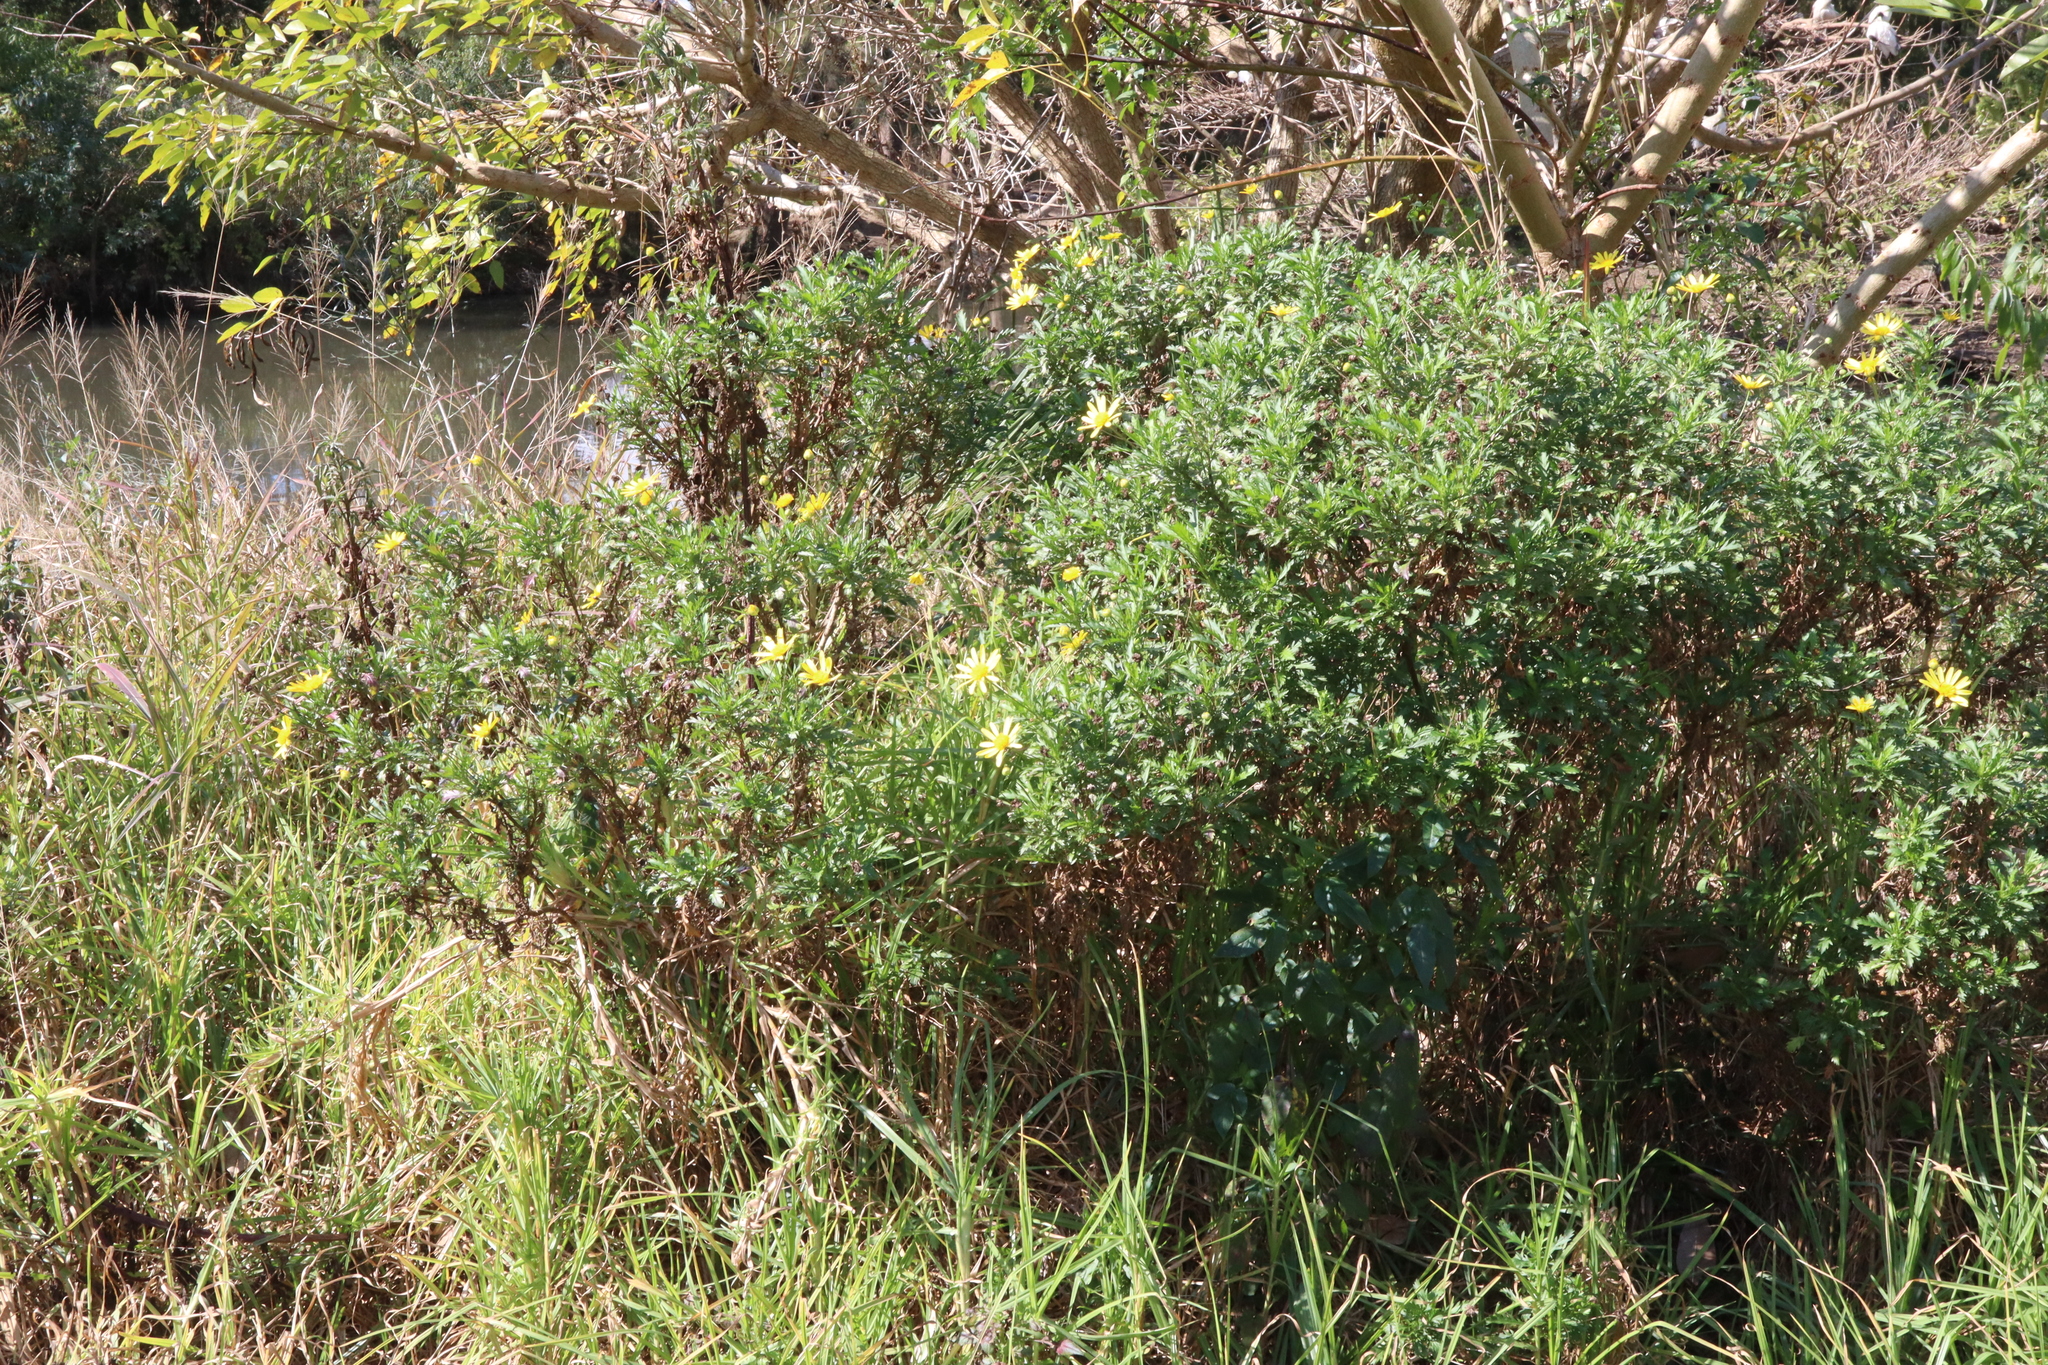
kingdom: Plantae
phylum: Tracheophyta
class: Magnoliopsida
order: Asterales
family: Asteraceae
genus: Euryops
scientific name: Euryops chrysanthemoides
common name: Bull's eye
